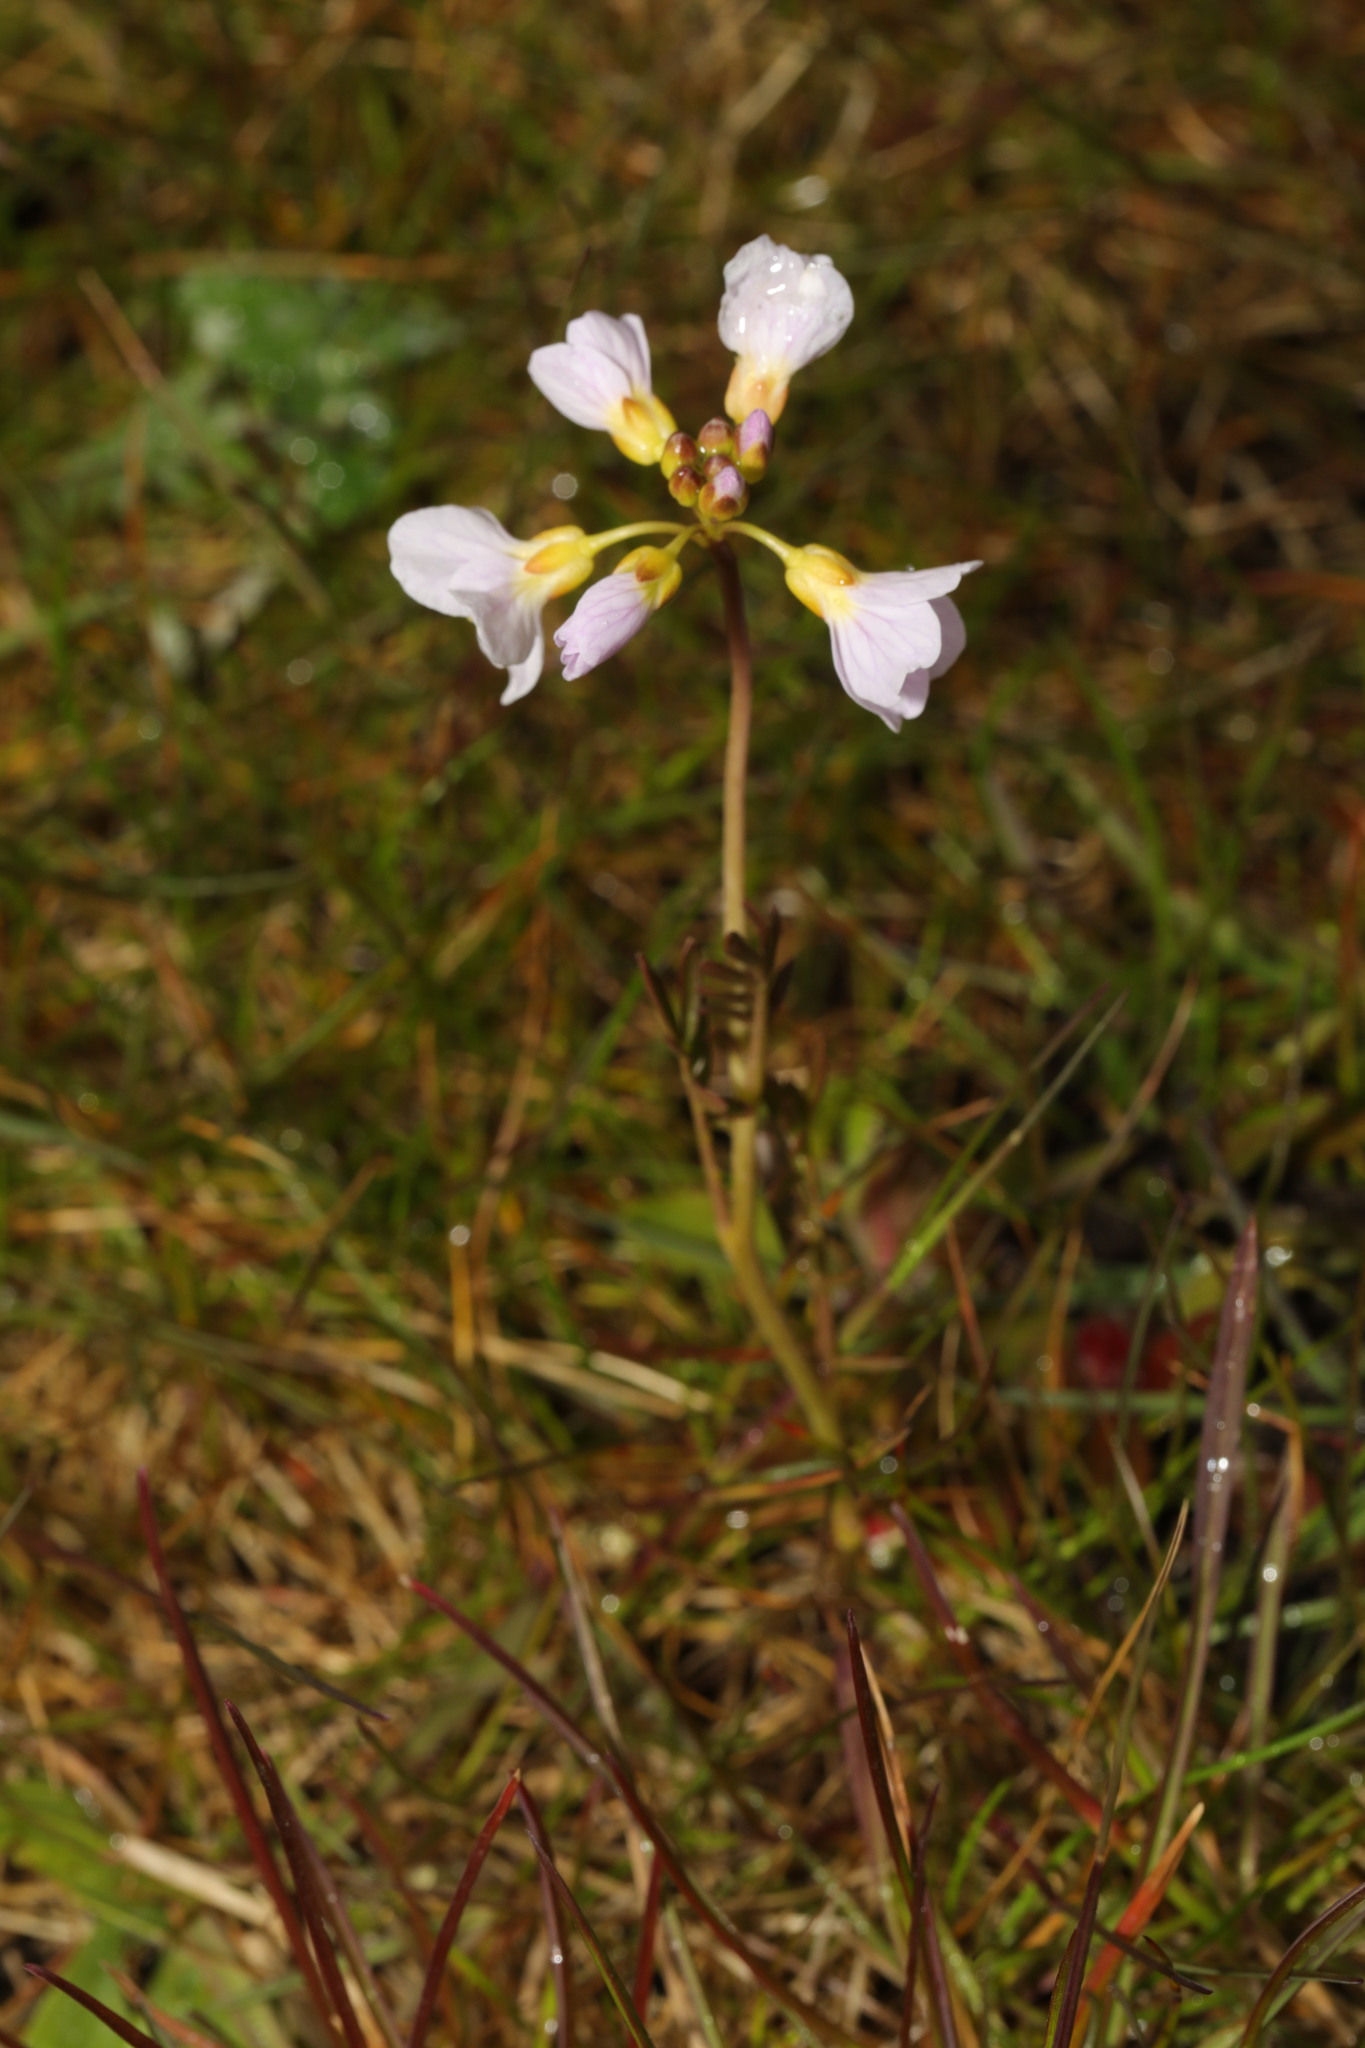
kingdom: Plantae
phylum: Tracheophyta
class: Magnoliopsida
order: Brassicales
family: Brassicaceae
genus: Cardamine
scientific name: Cardamine pratensis
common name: Cuckoo flower
